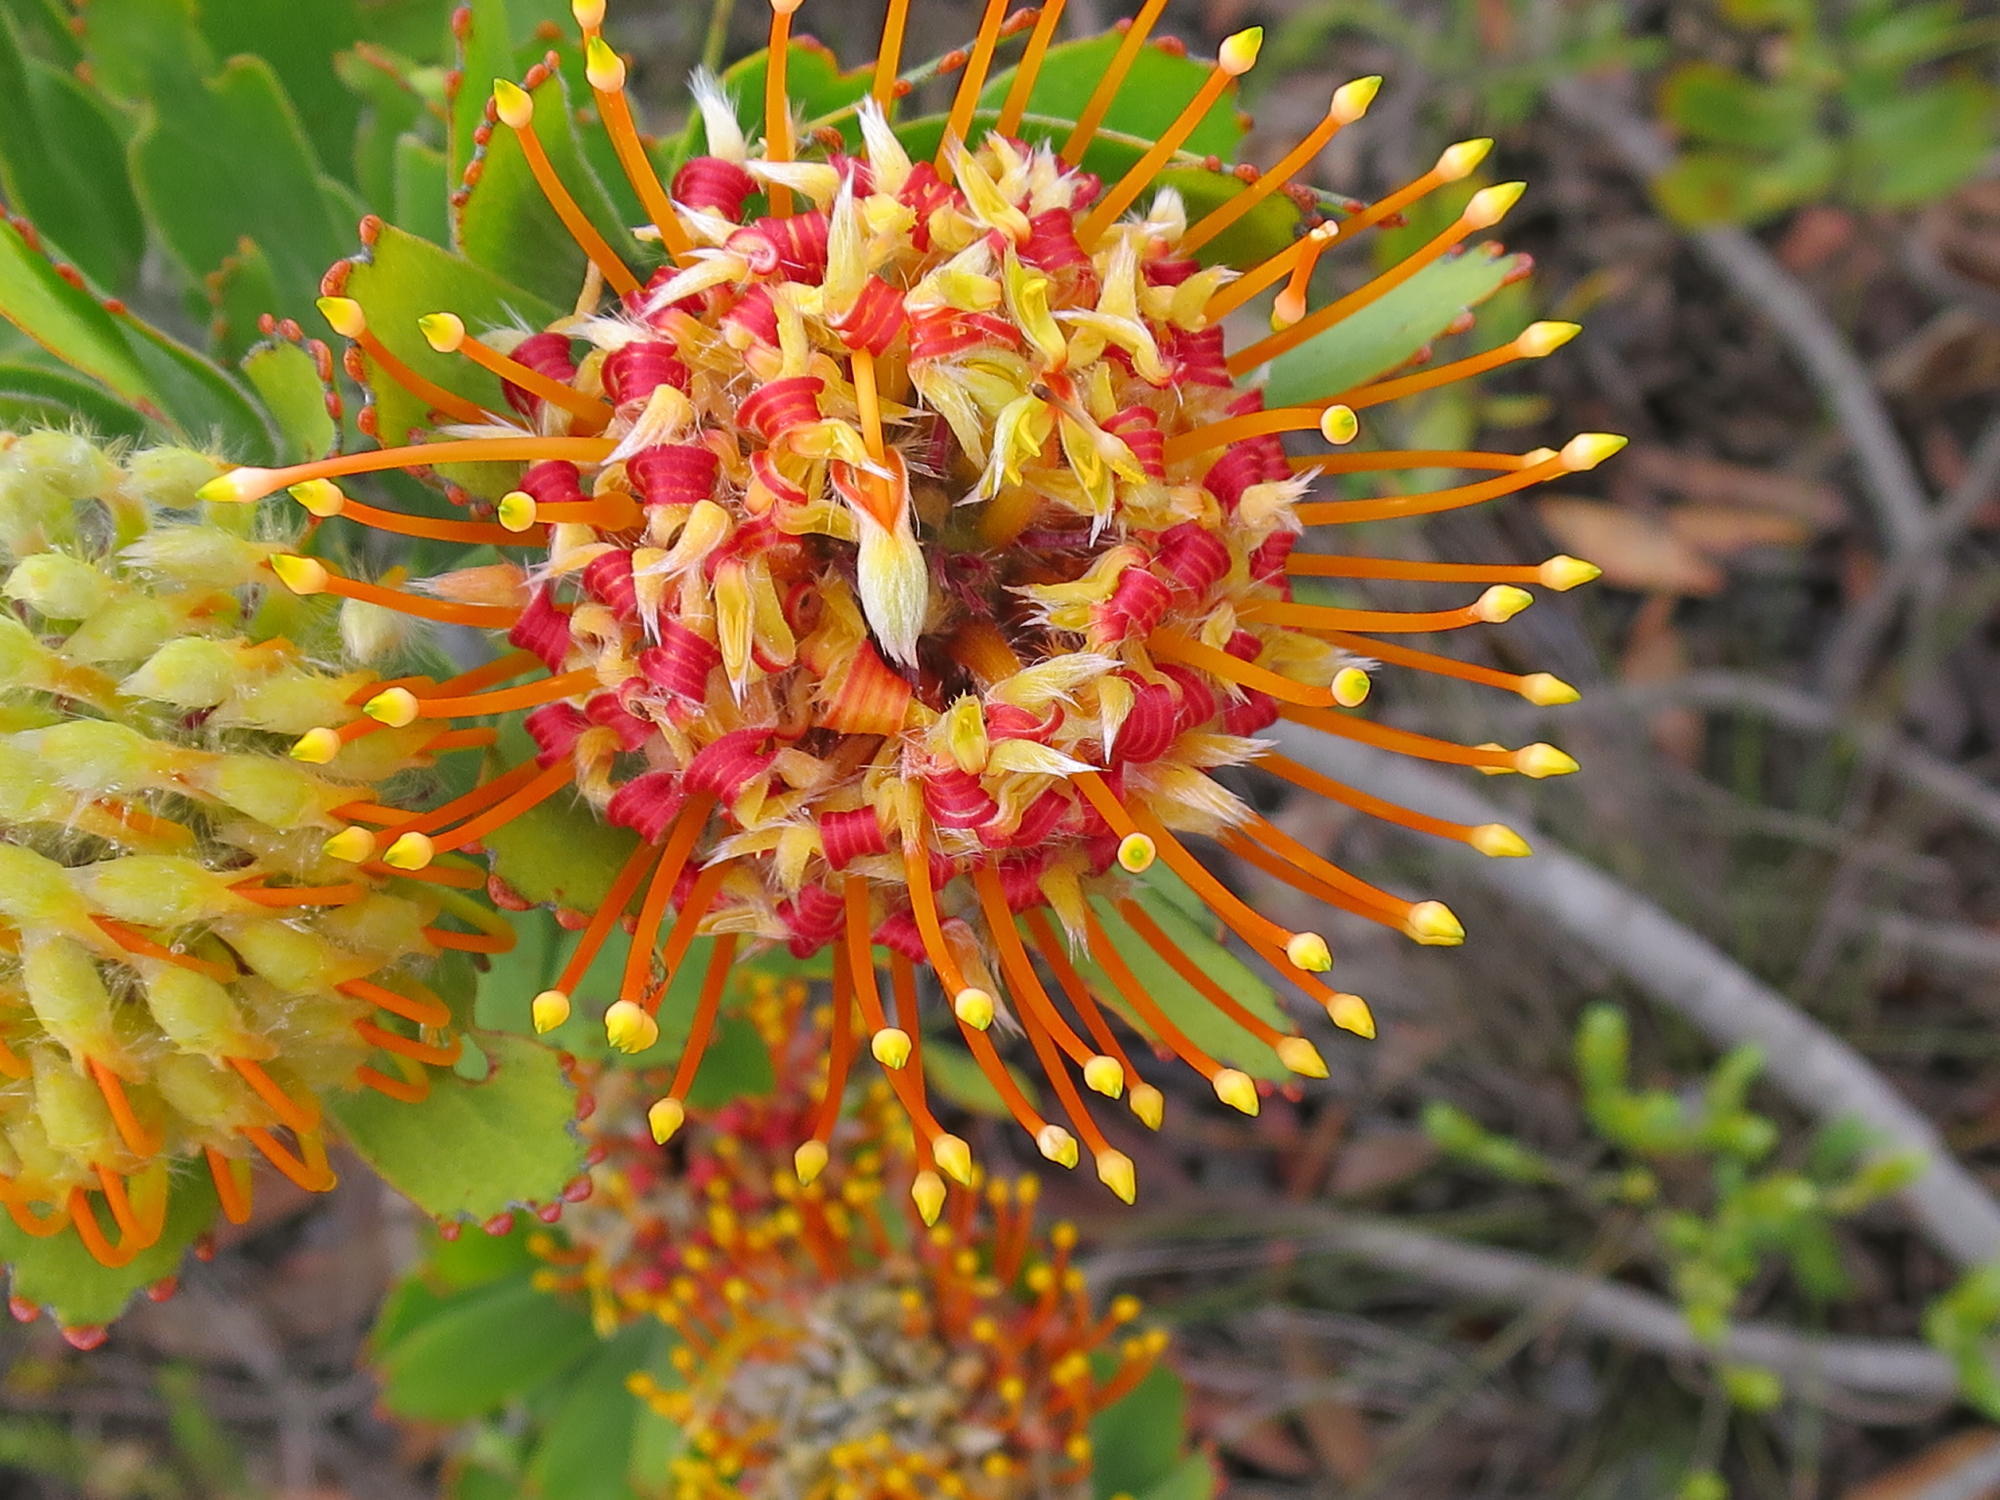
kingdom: Plantae
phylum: Tracheophyta
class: Magnoliopsida
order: Proteales
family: Proteaceae
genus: Leucospermum
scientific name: Leucospermum pluridens
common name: Robinson pincushion
